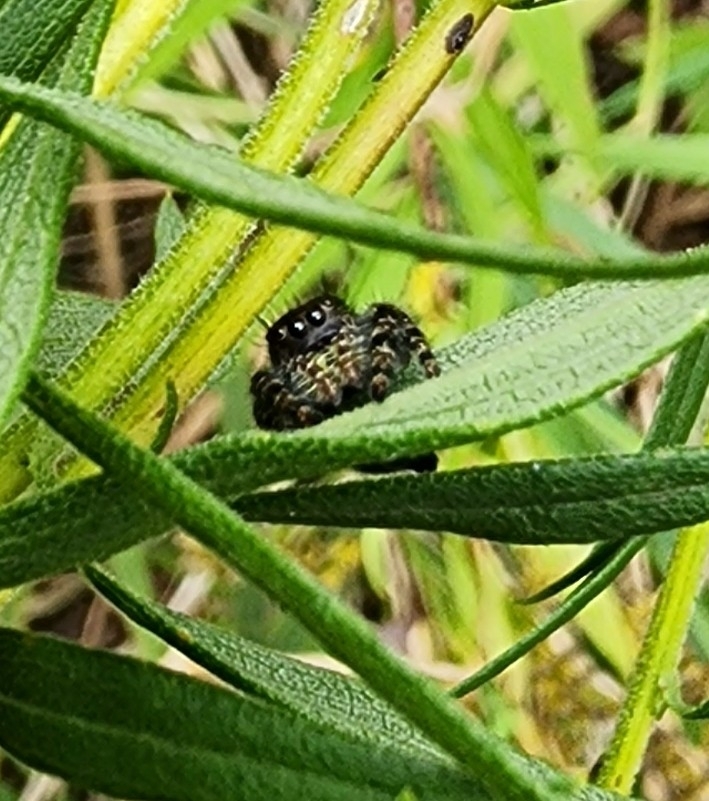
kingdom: Animalia
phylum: Arthropoda
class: Arachnida
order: Araneae
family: Salticidae
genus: Phidippus
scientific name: Phidippus audax
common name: Bold jumper
